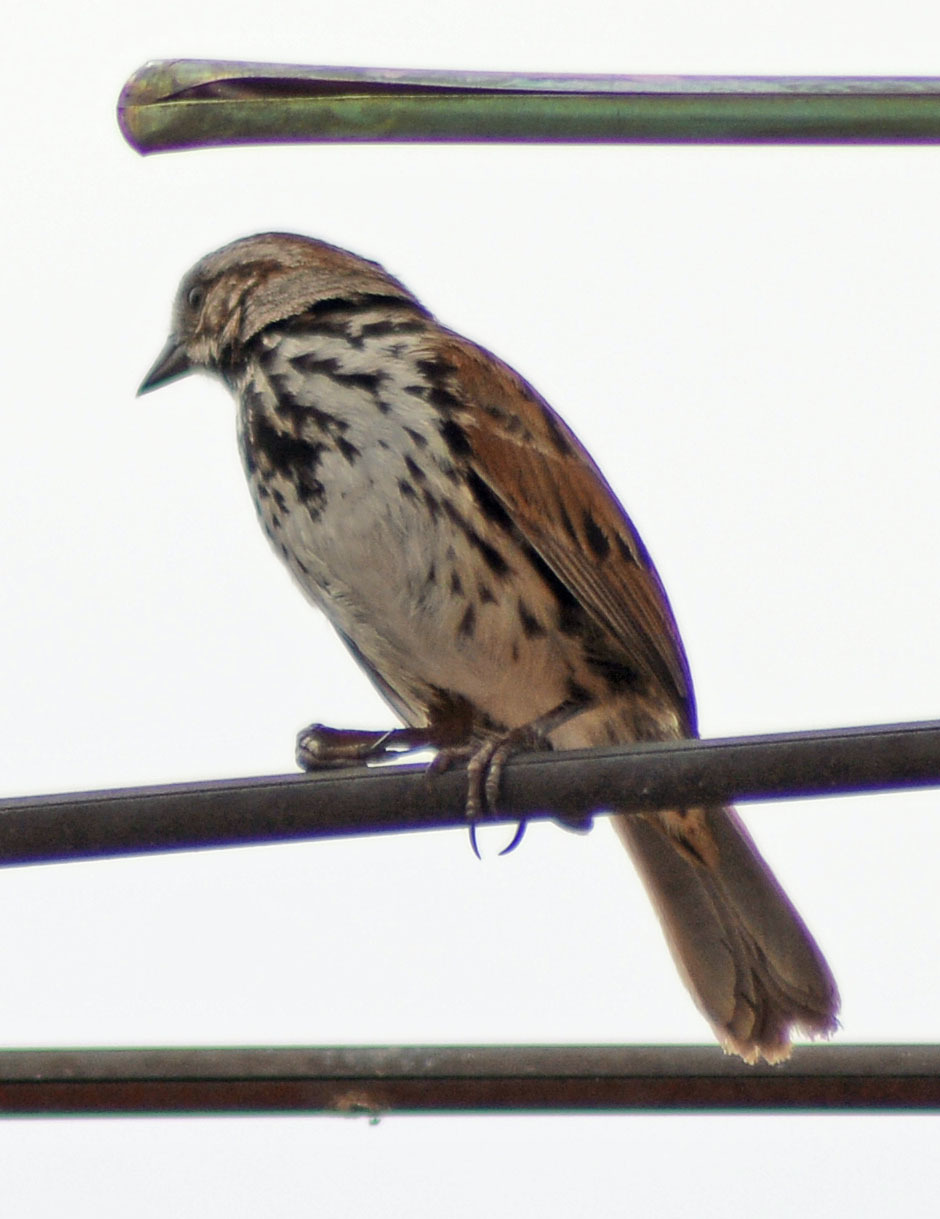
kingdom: Animalia
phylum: Chordata
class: Aves
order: Passeriformes
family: Passerellidae
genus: Melospiza
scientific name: Melospiza melodia
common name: Song sparrow
